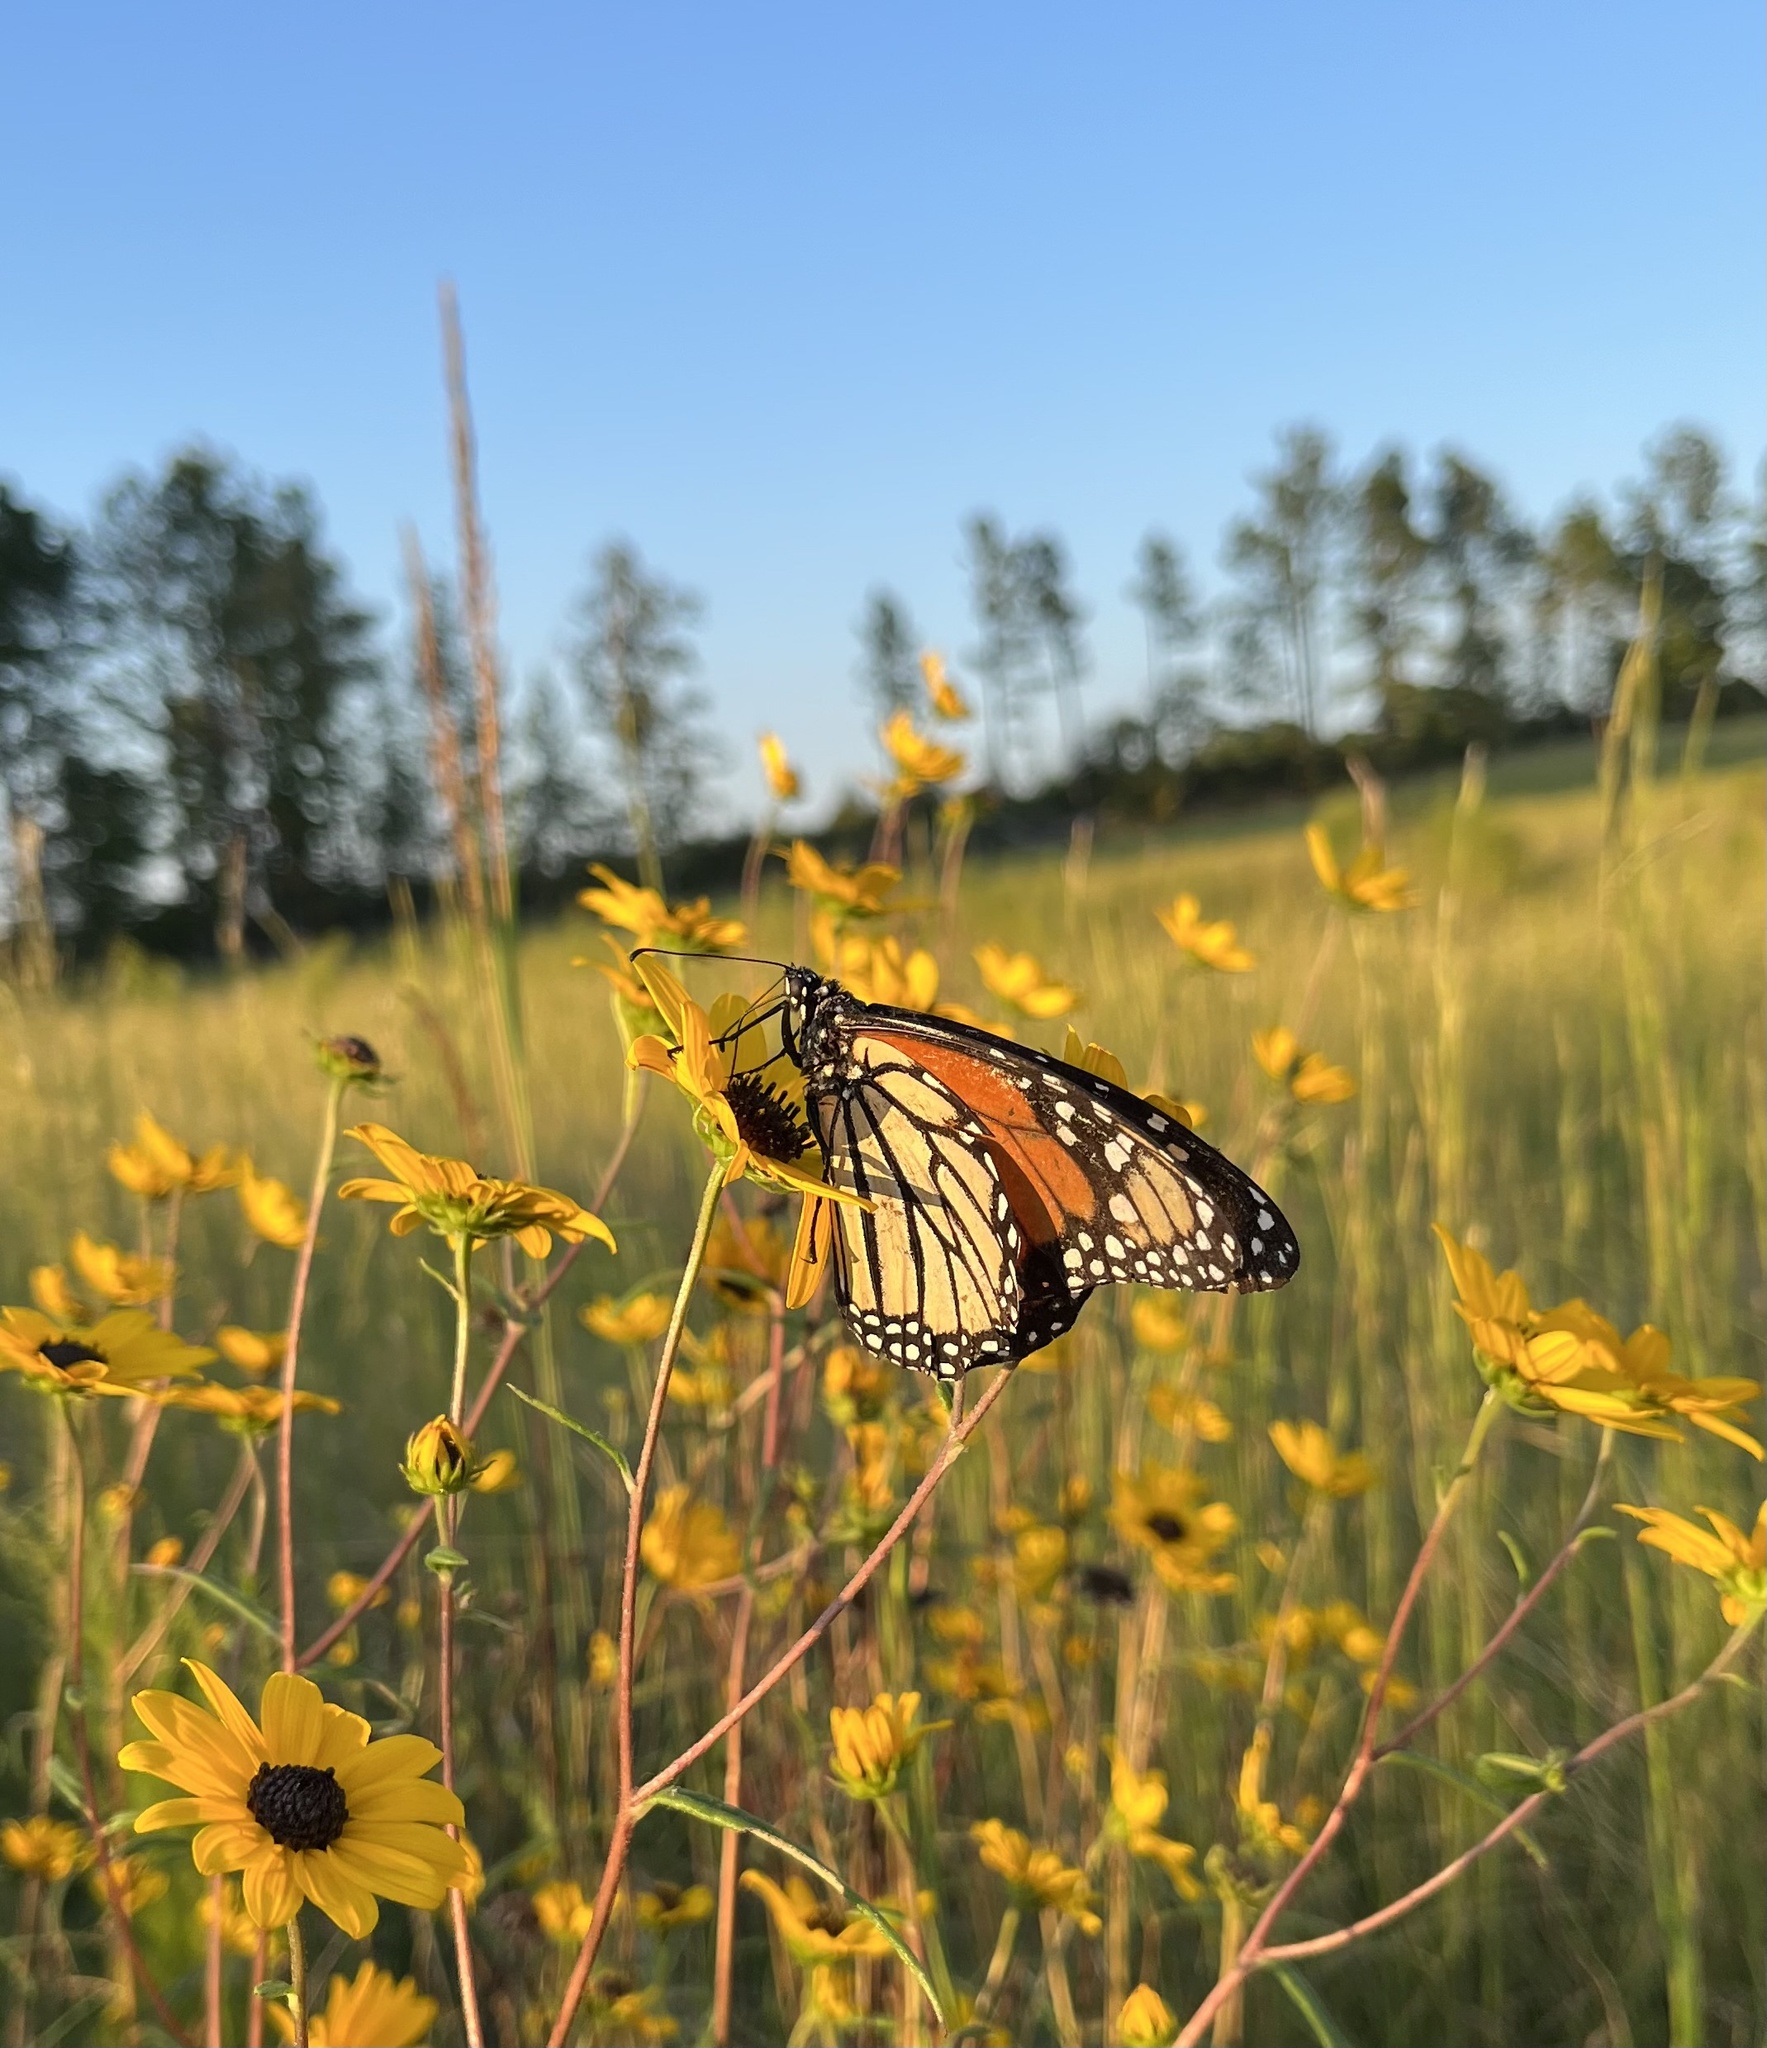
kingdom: Animalia
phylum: Arthropoda
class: Insecta
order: Lepidoptera
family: Nymphalidae
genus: Danaus
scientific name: Danaus plexippus
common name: Monarch
